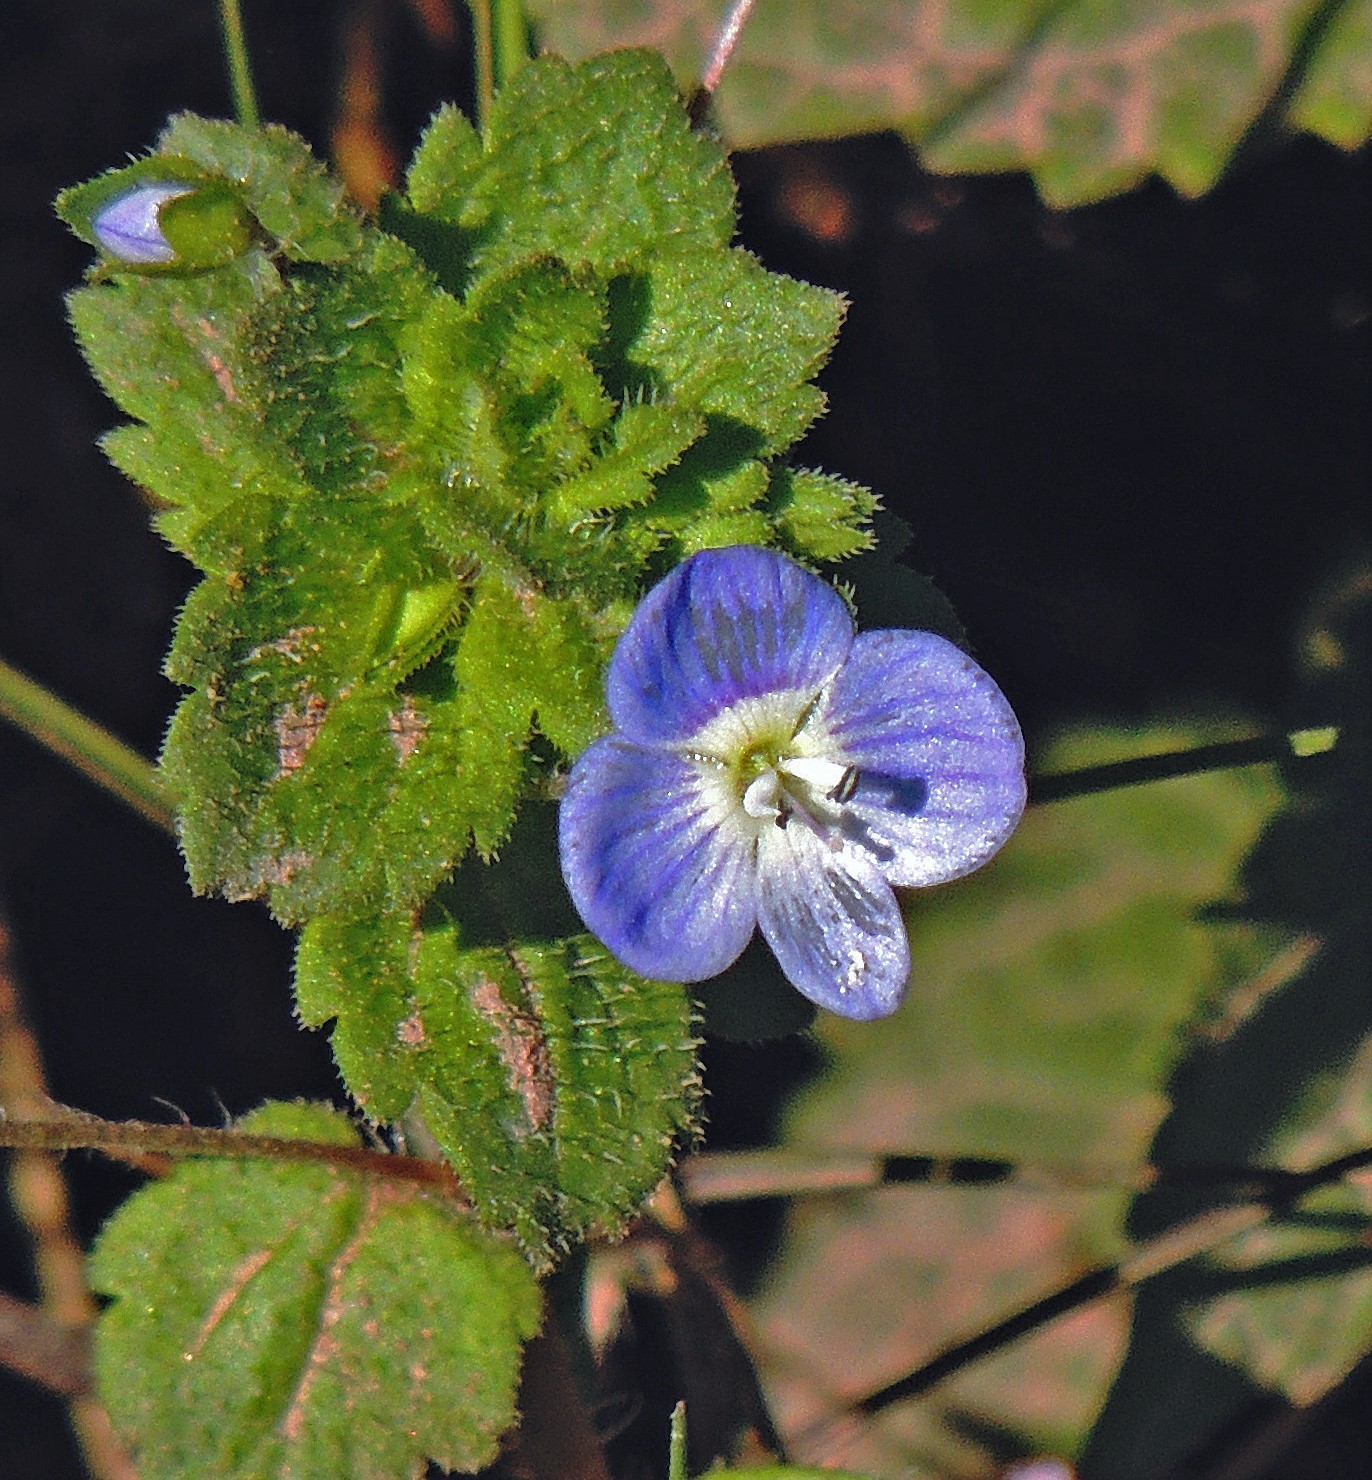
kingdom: Plantae
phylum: Tracheophyta
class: Magnoliopsida
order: Lamiales
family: Plantaginaceae
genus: Veronica
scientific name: Veronica persica
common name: Common field-speedwell
